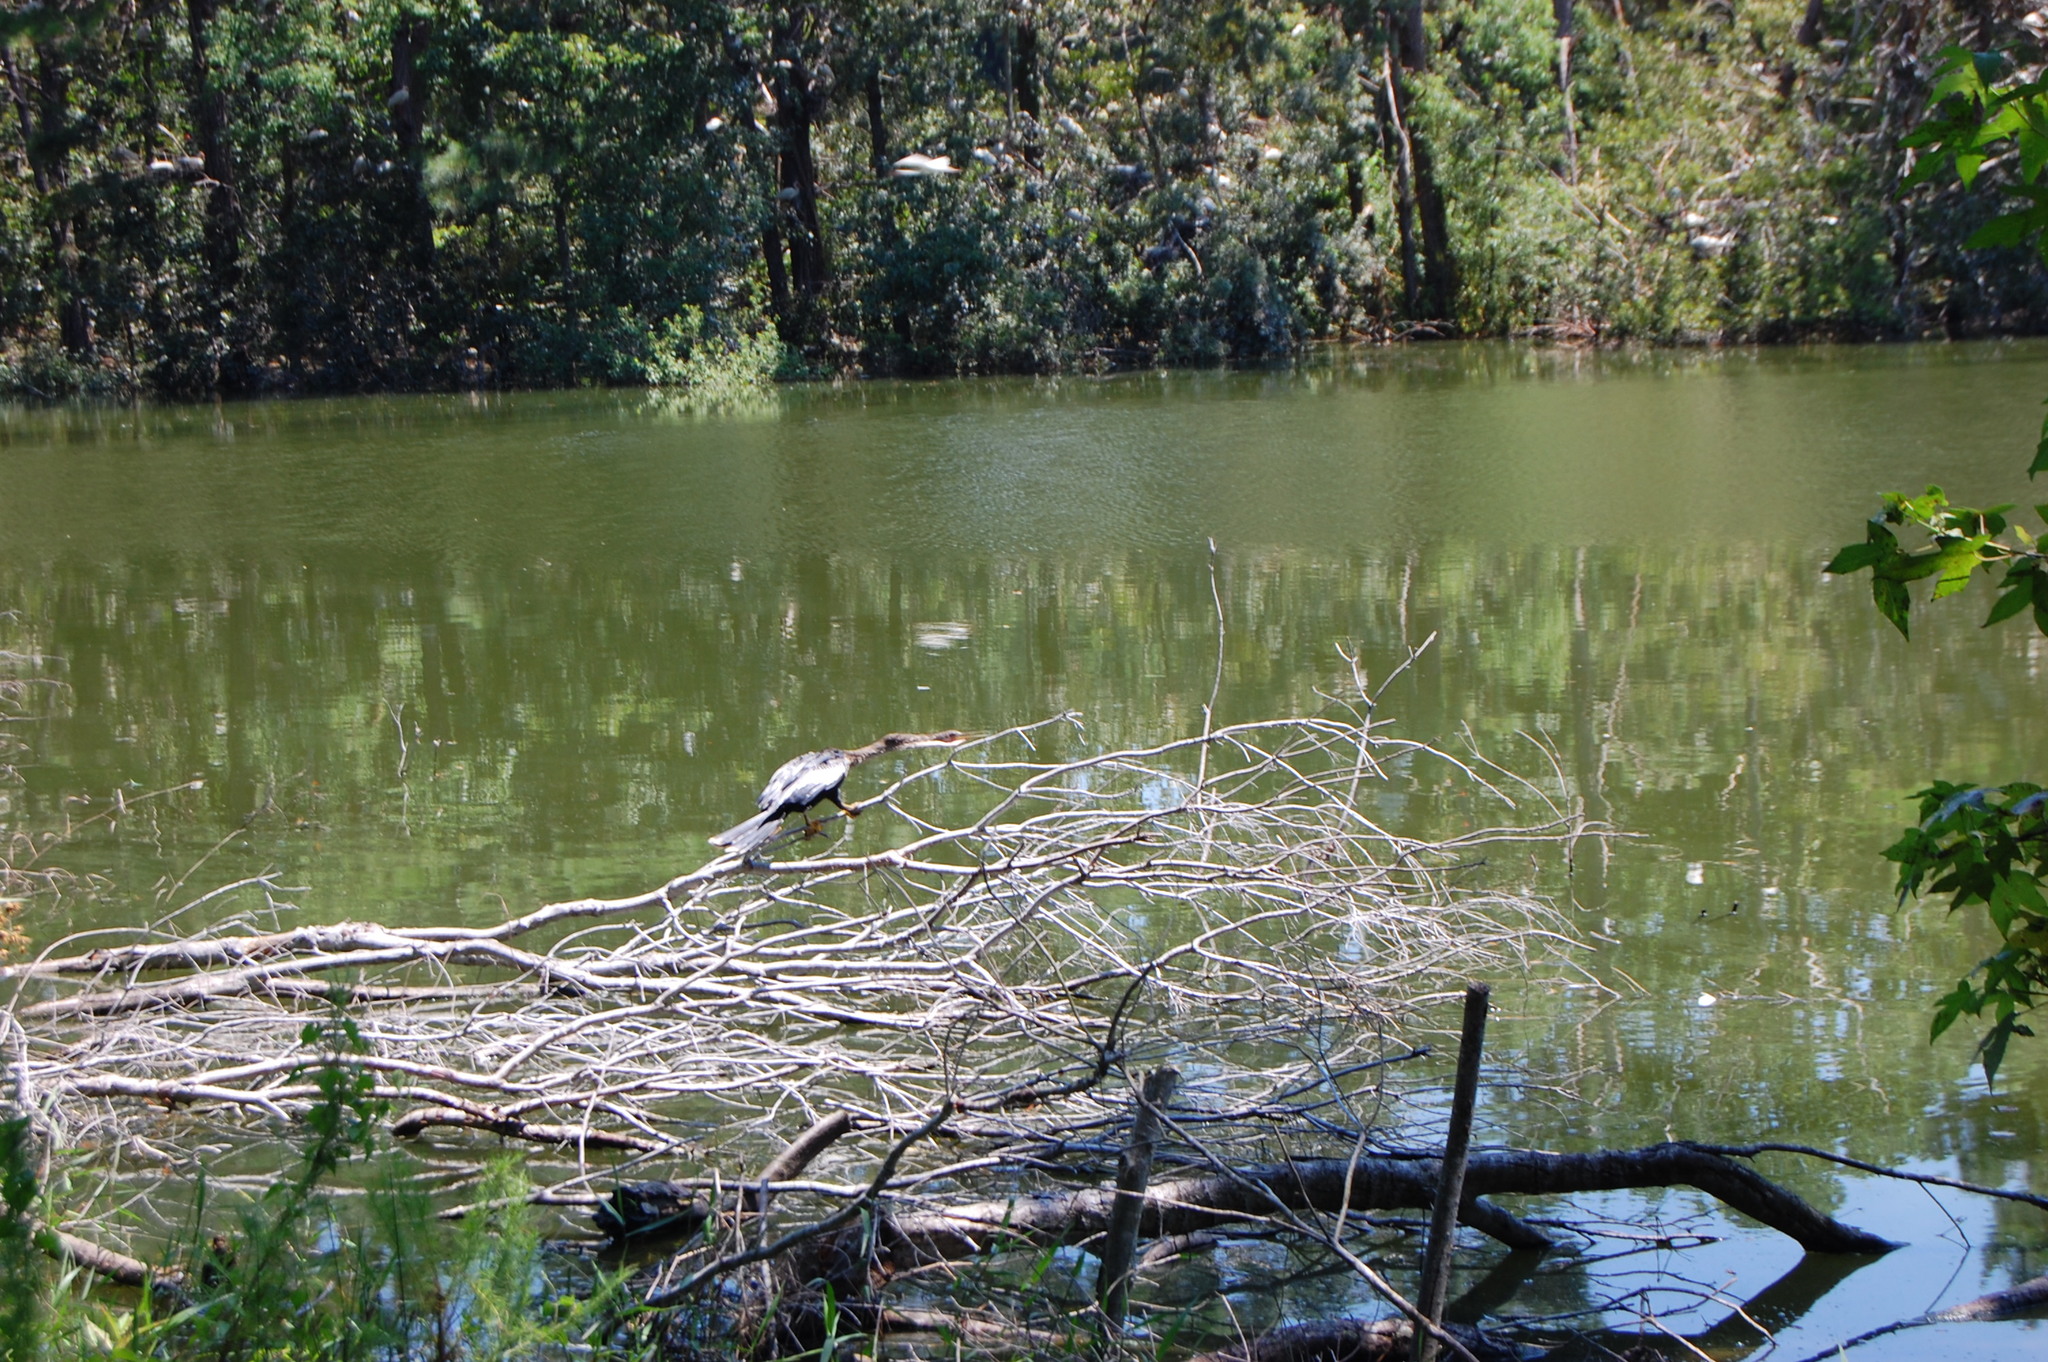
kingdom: Animalia
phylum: Chordata
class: Aves
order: Suliformes
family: Anhingidae
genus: Anhinga
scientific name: Anhinga anhinga
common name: Anhinga
